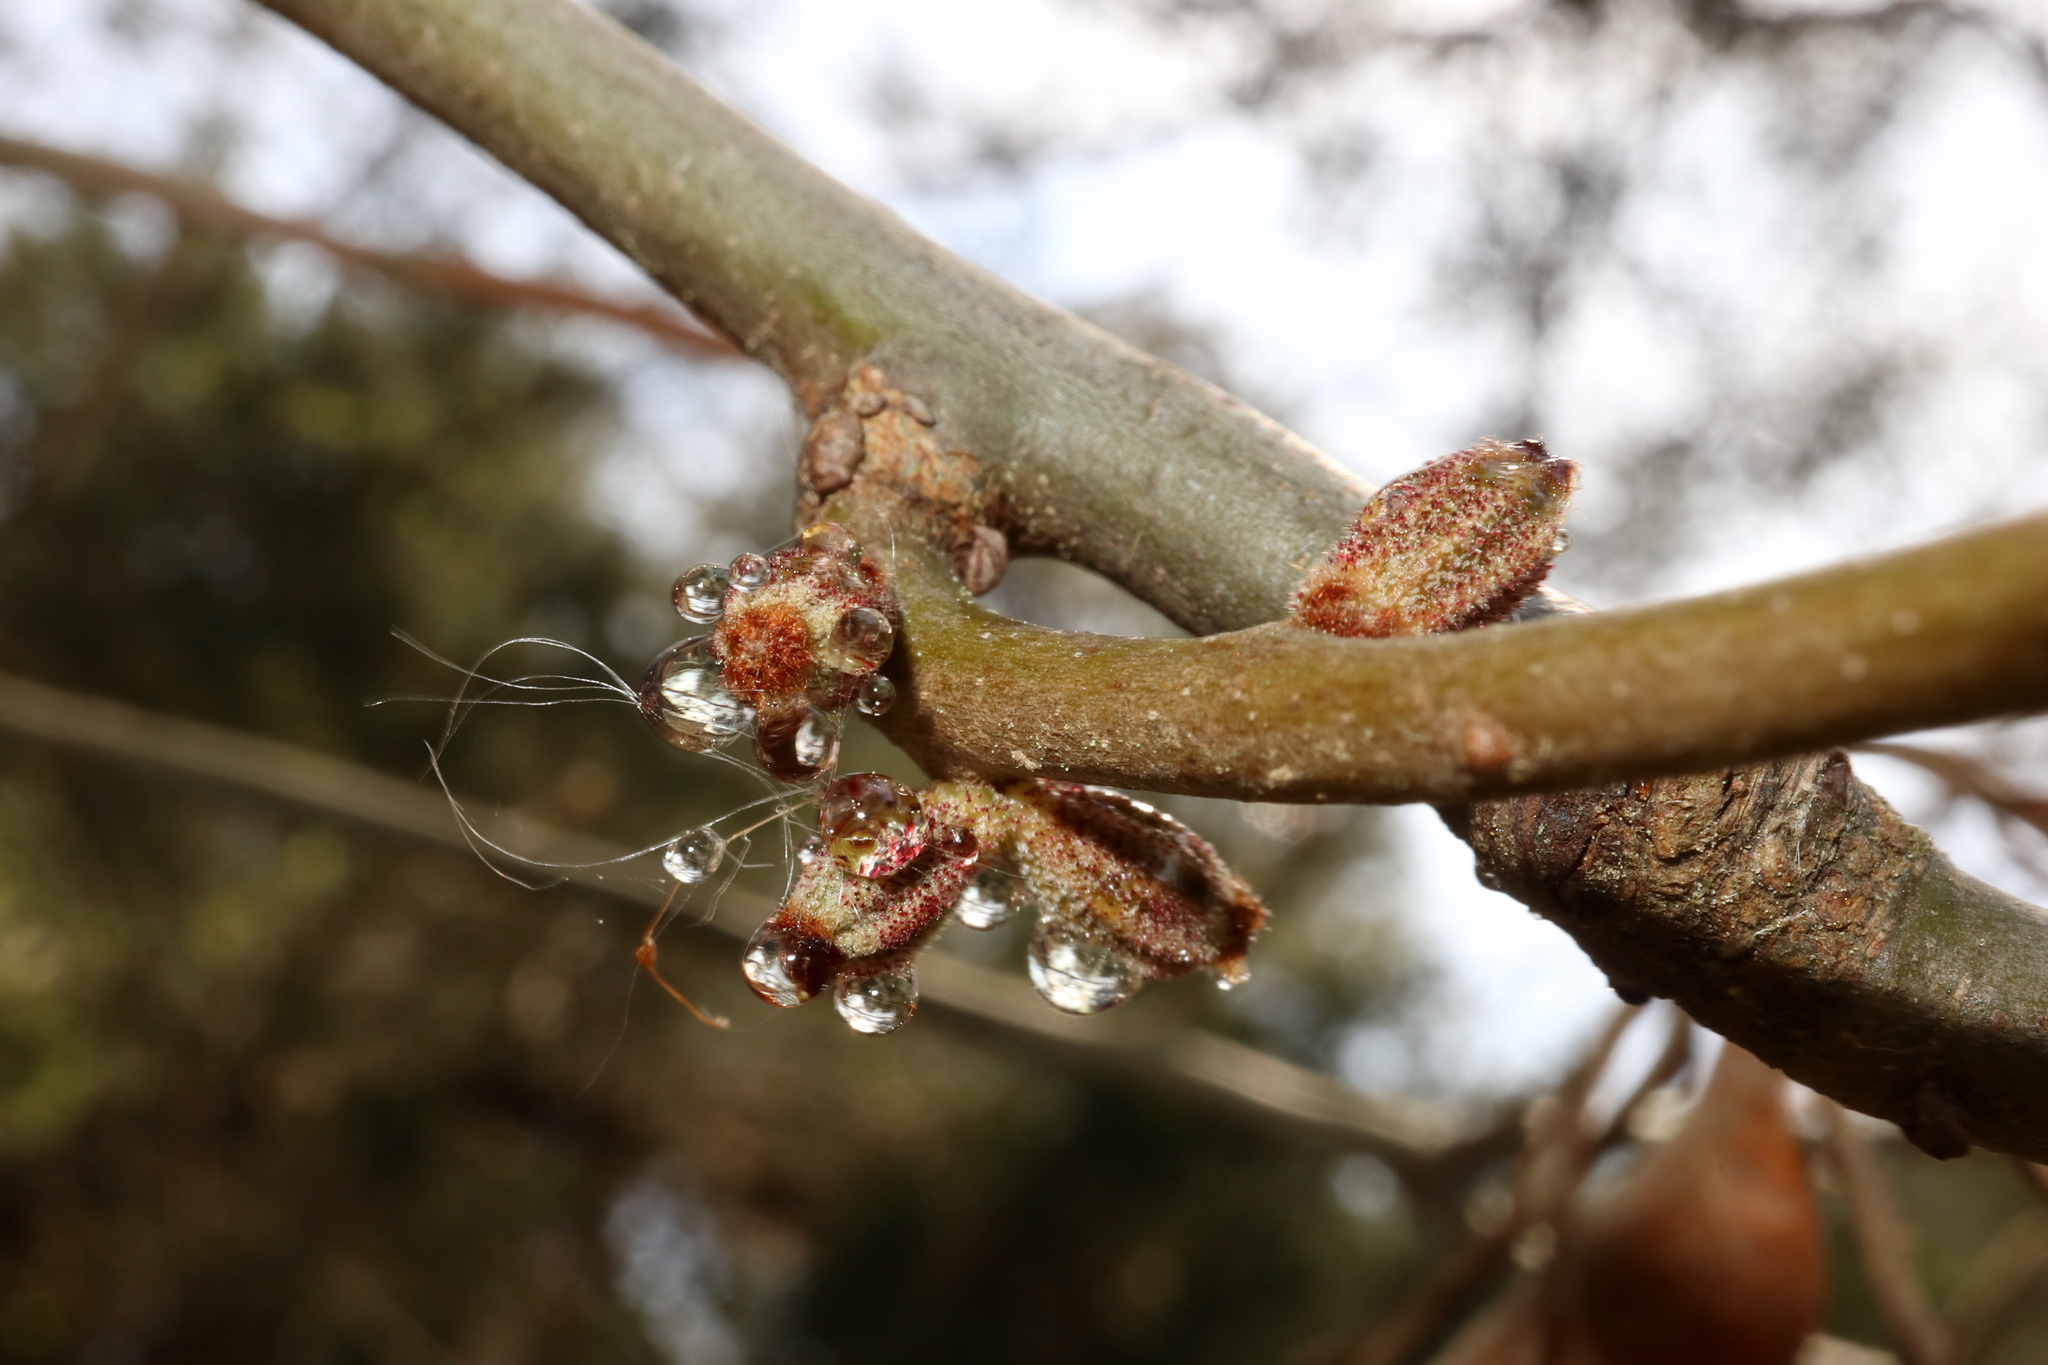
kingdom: Animalia
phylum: Arthropoda
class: Insecta
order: Hymenoptera
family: Cynipidae
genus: Callirhytis
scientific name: Callirhytis
